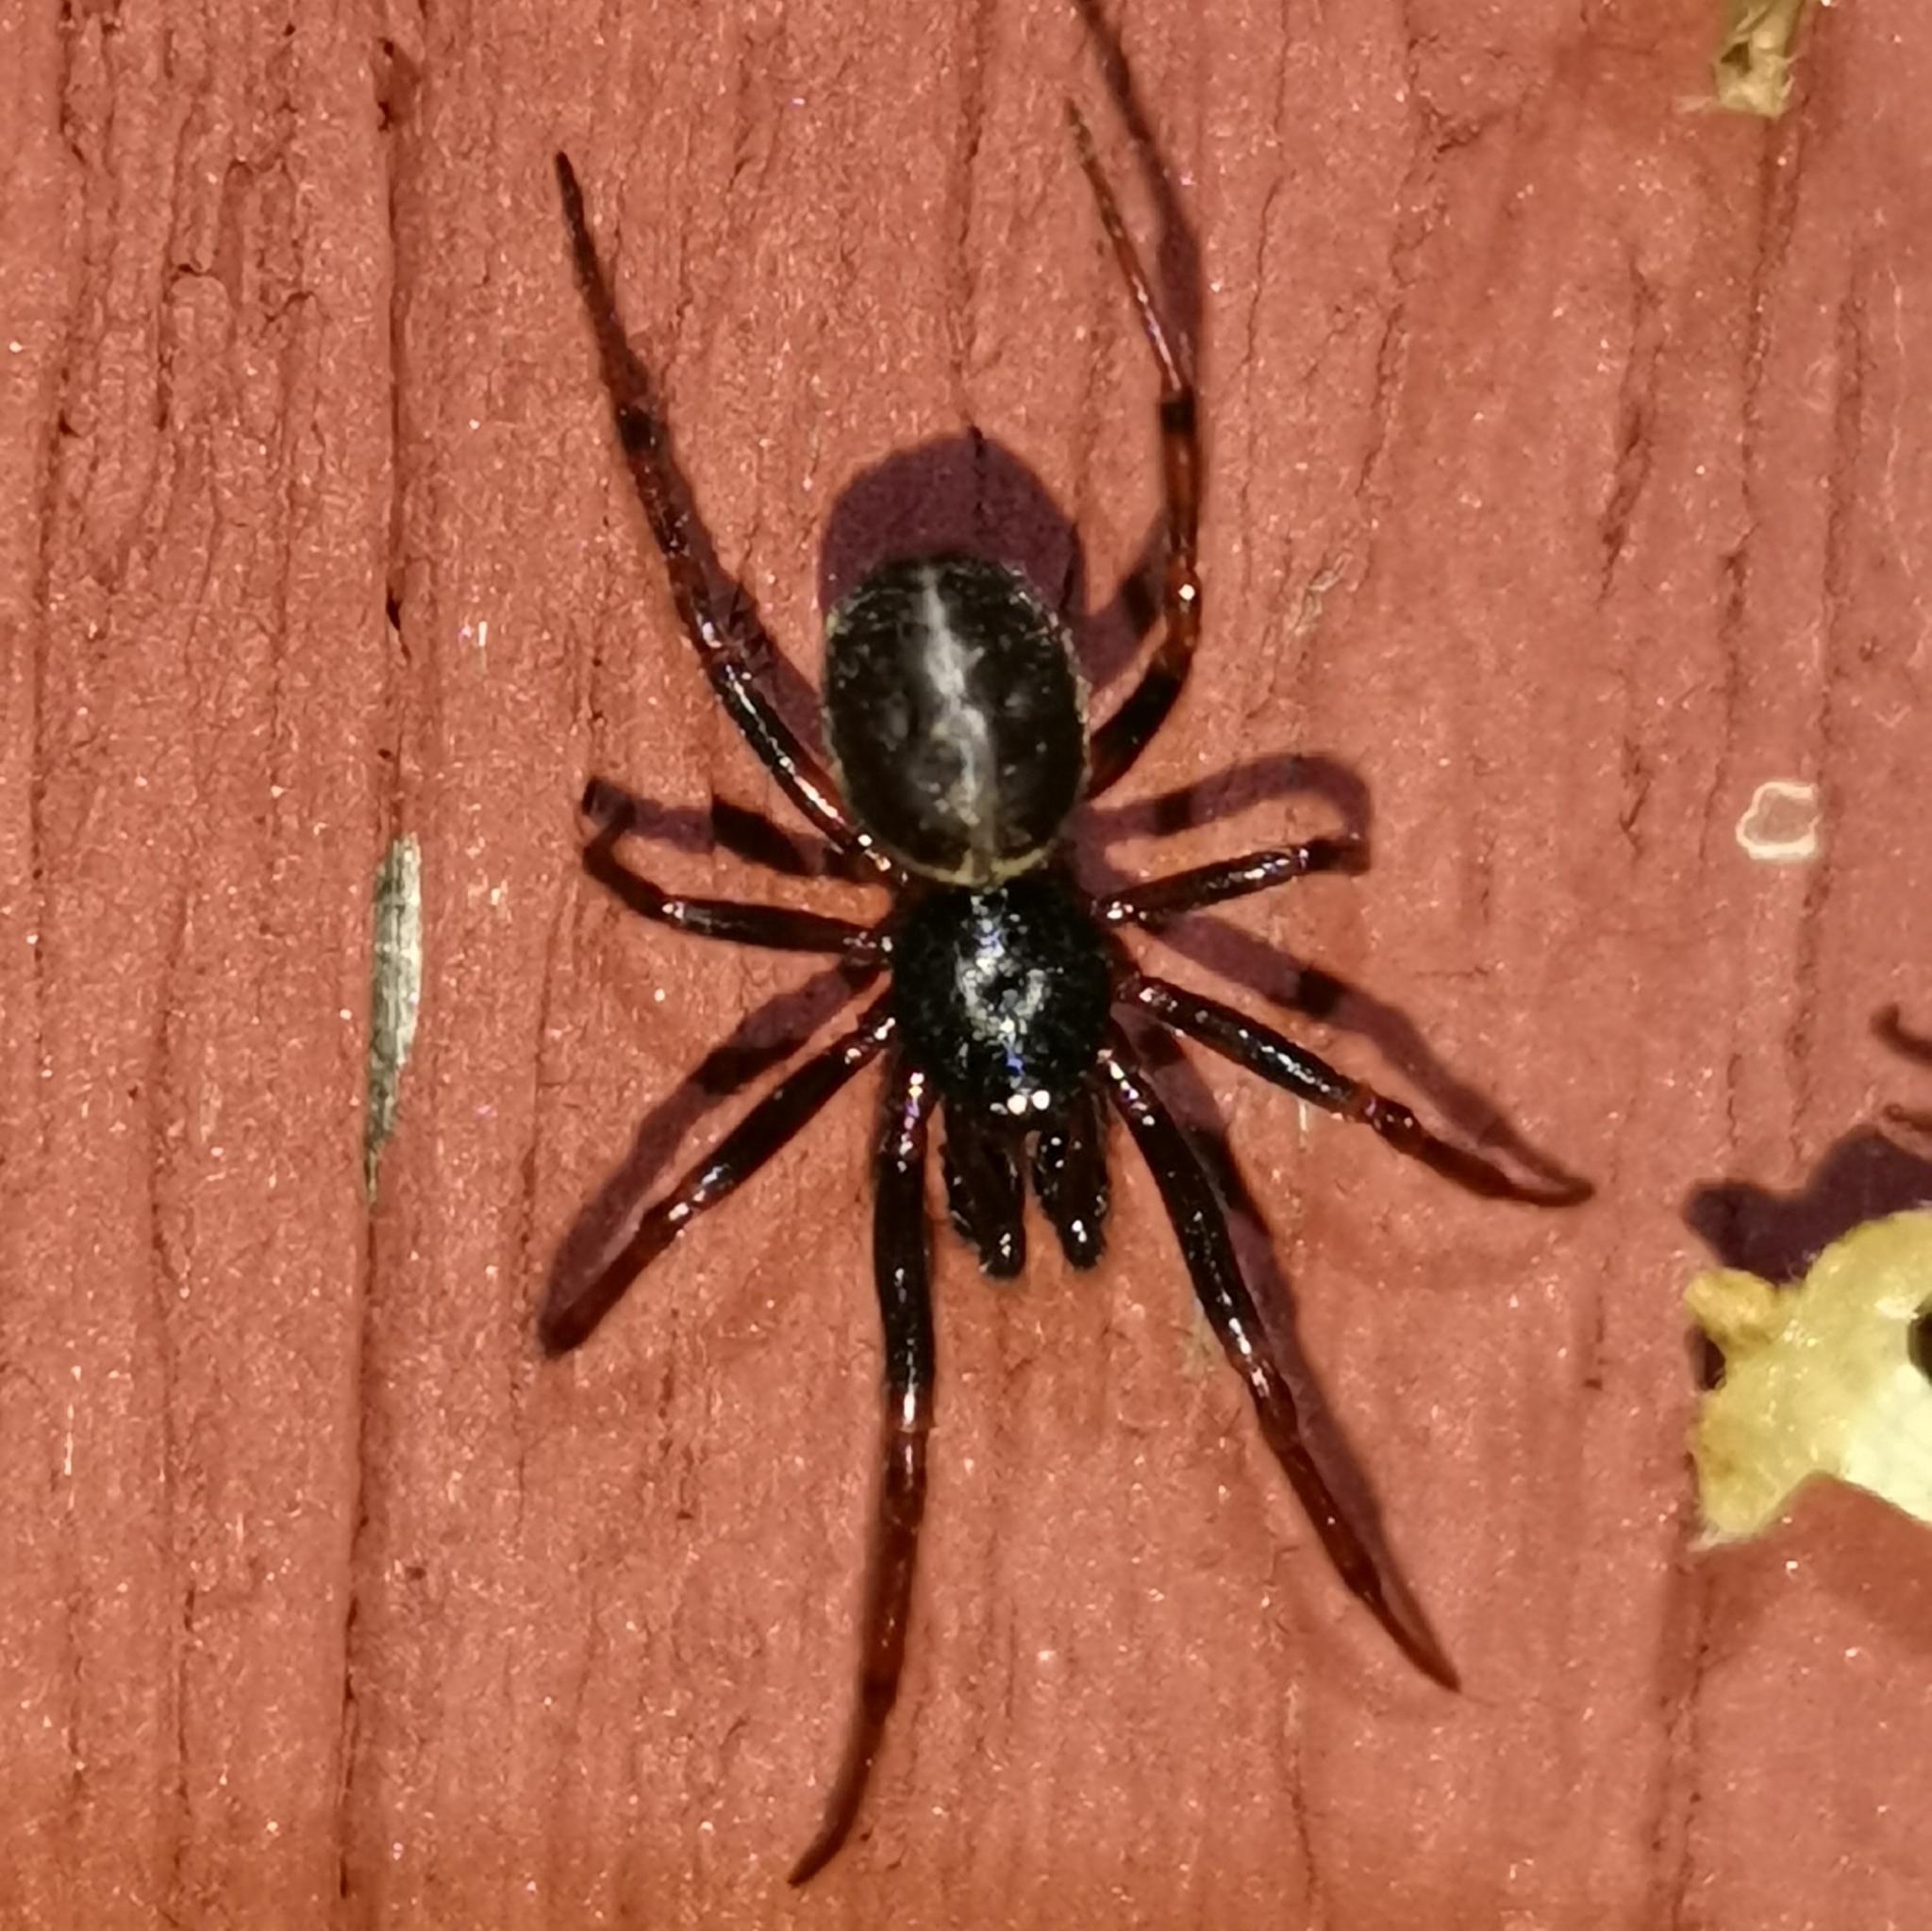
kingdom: Animalia
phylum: Arthropoda
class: Arachnida
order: Araneae
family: Theridiidae
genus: Steatoda
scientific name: Steatoda bipunctata
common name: False widow
